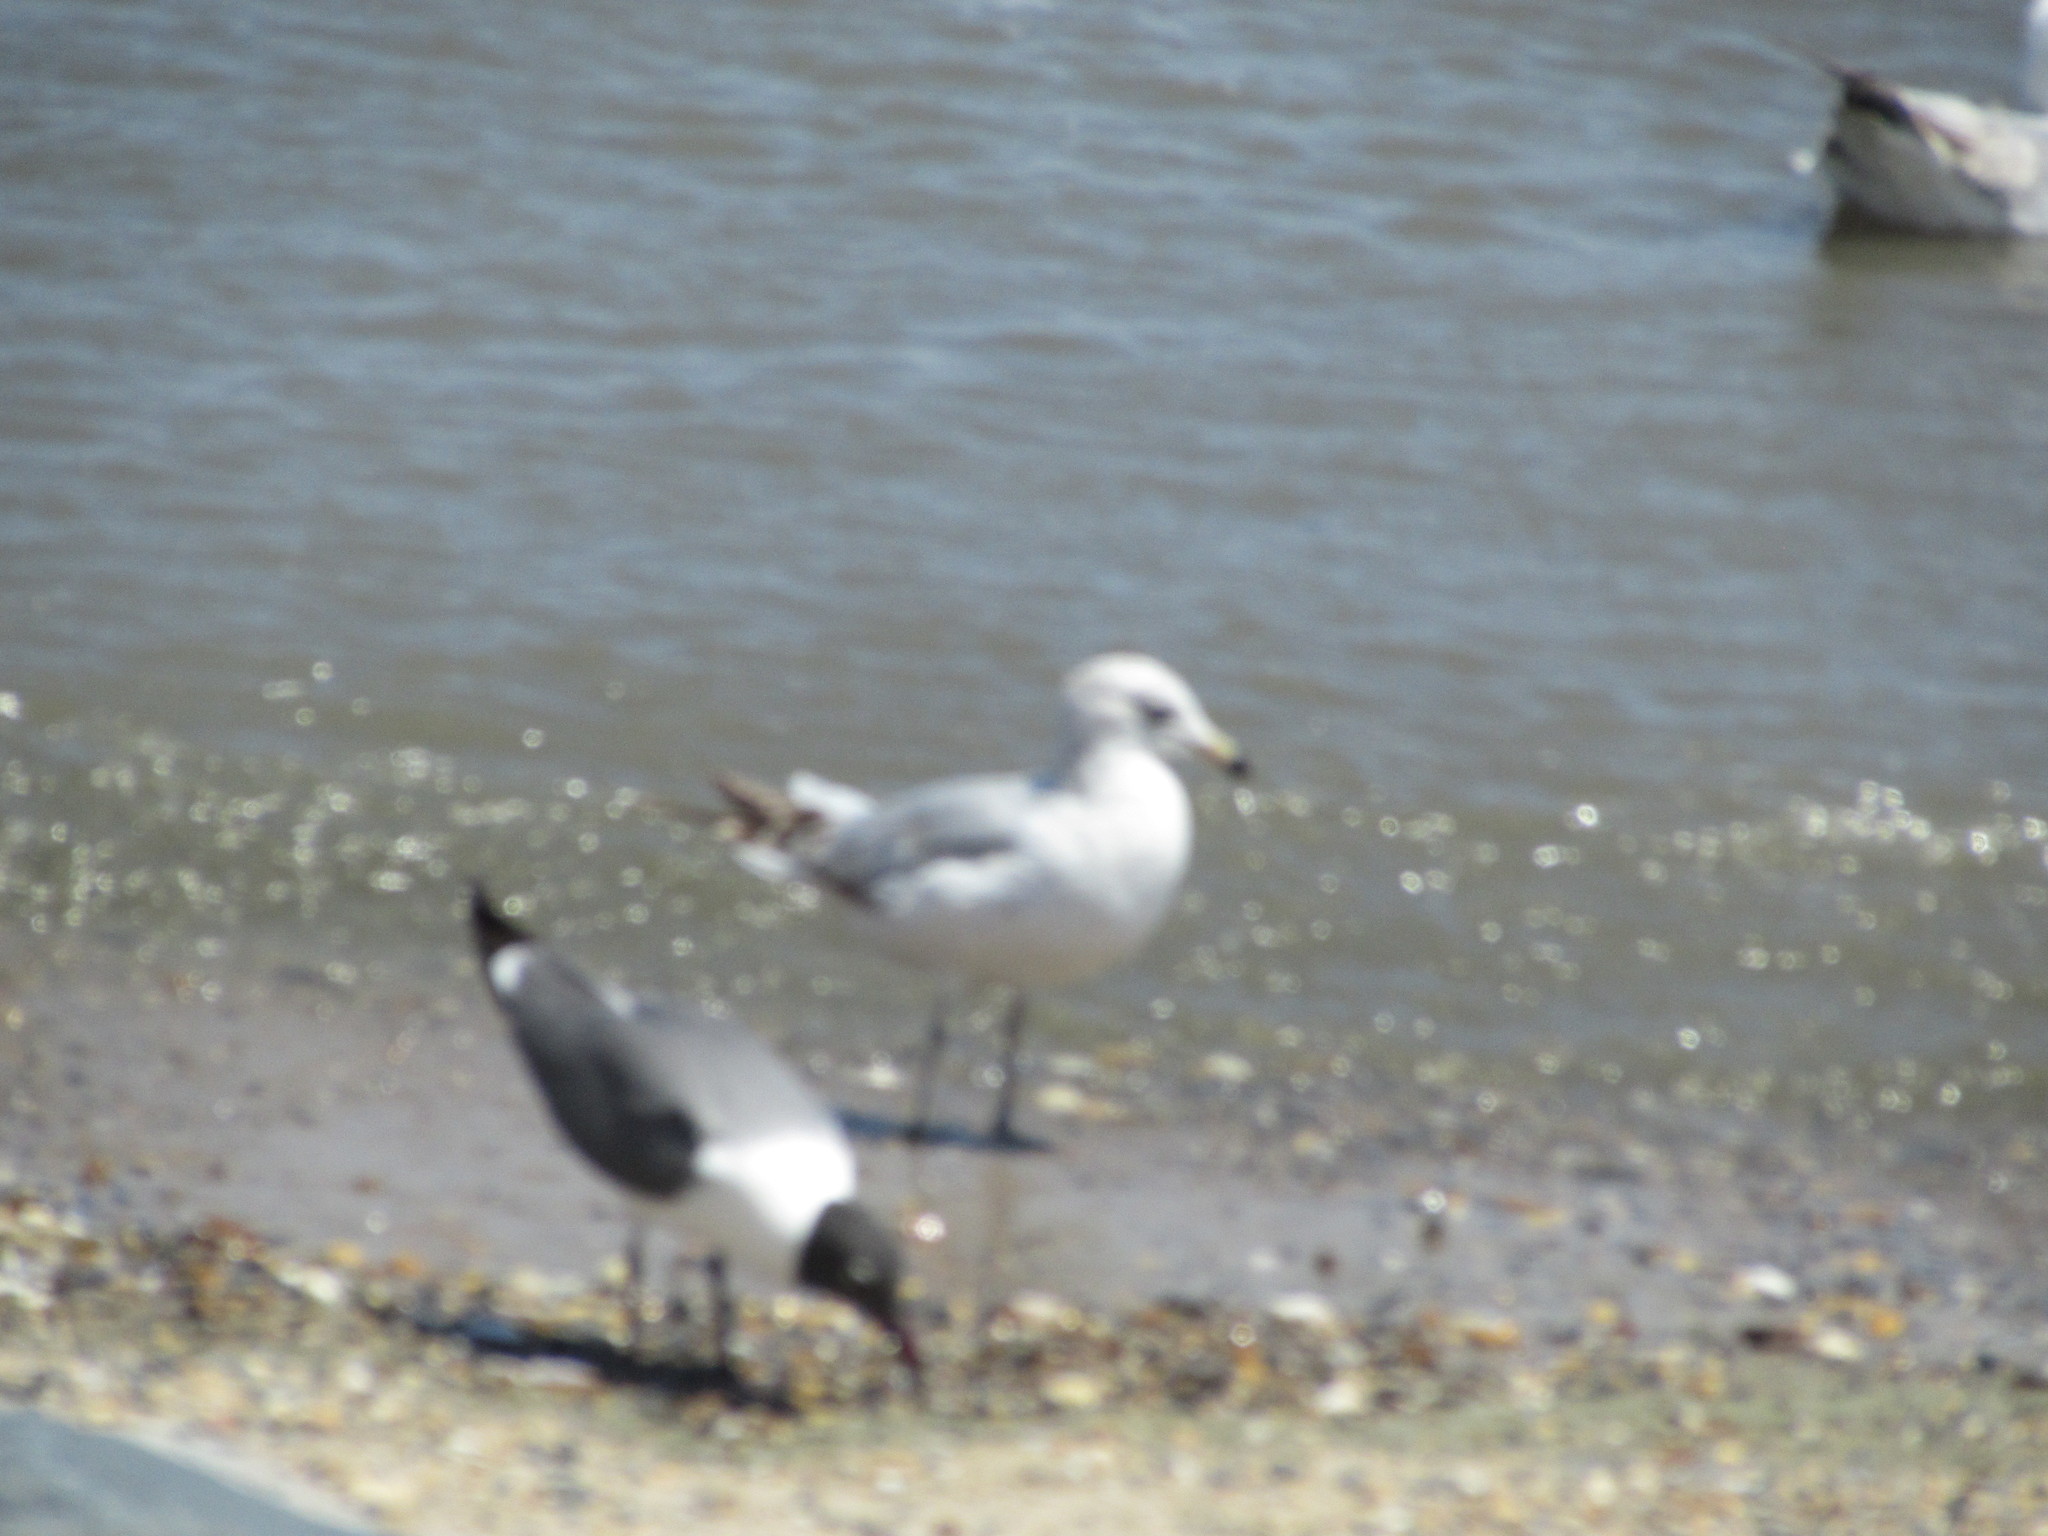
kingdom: Animalia
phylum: Chordata
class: Aves
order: Charadriiformes
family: Laridae
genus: Leucophaeus
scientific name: Leucophaeus atricilla
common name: Laughing gull
